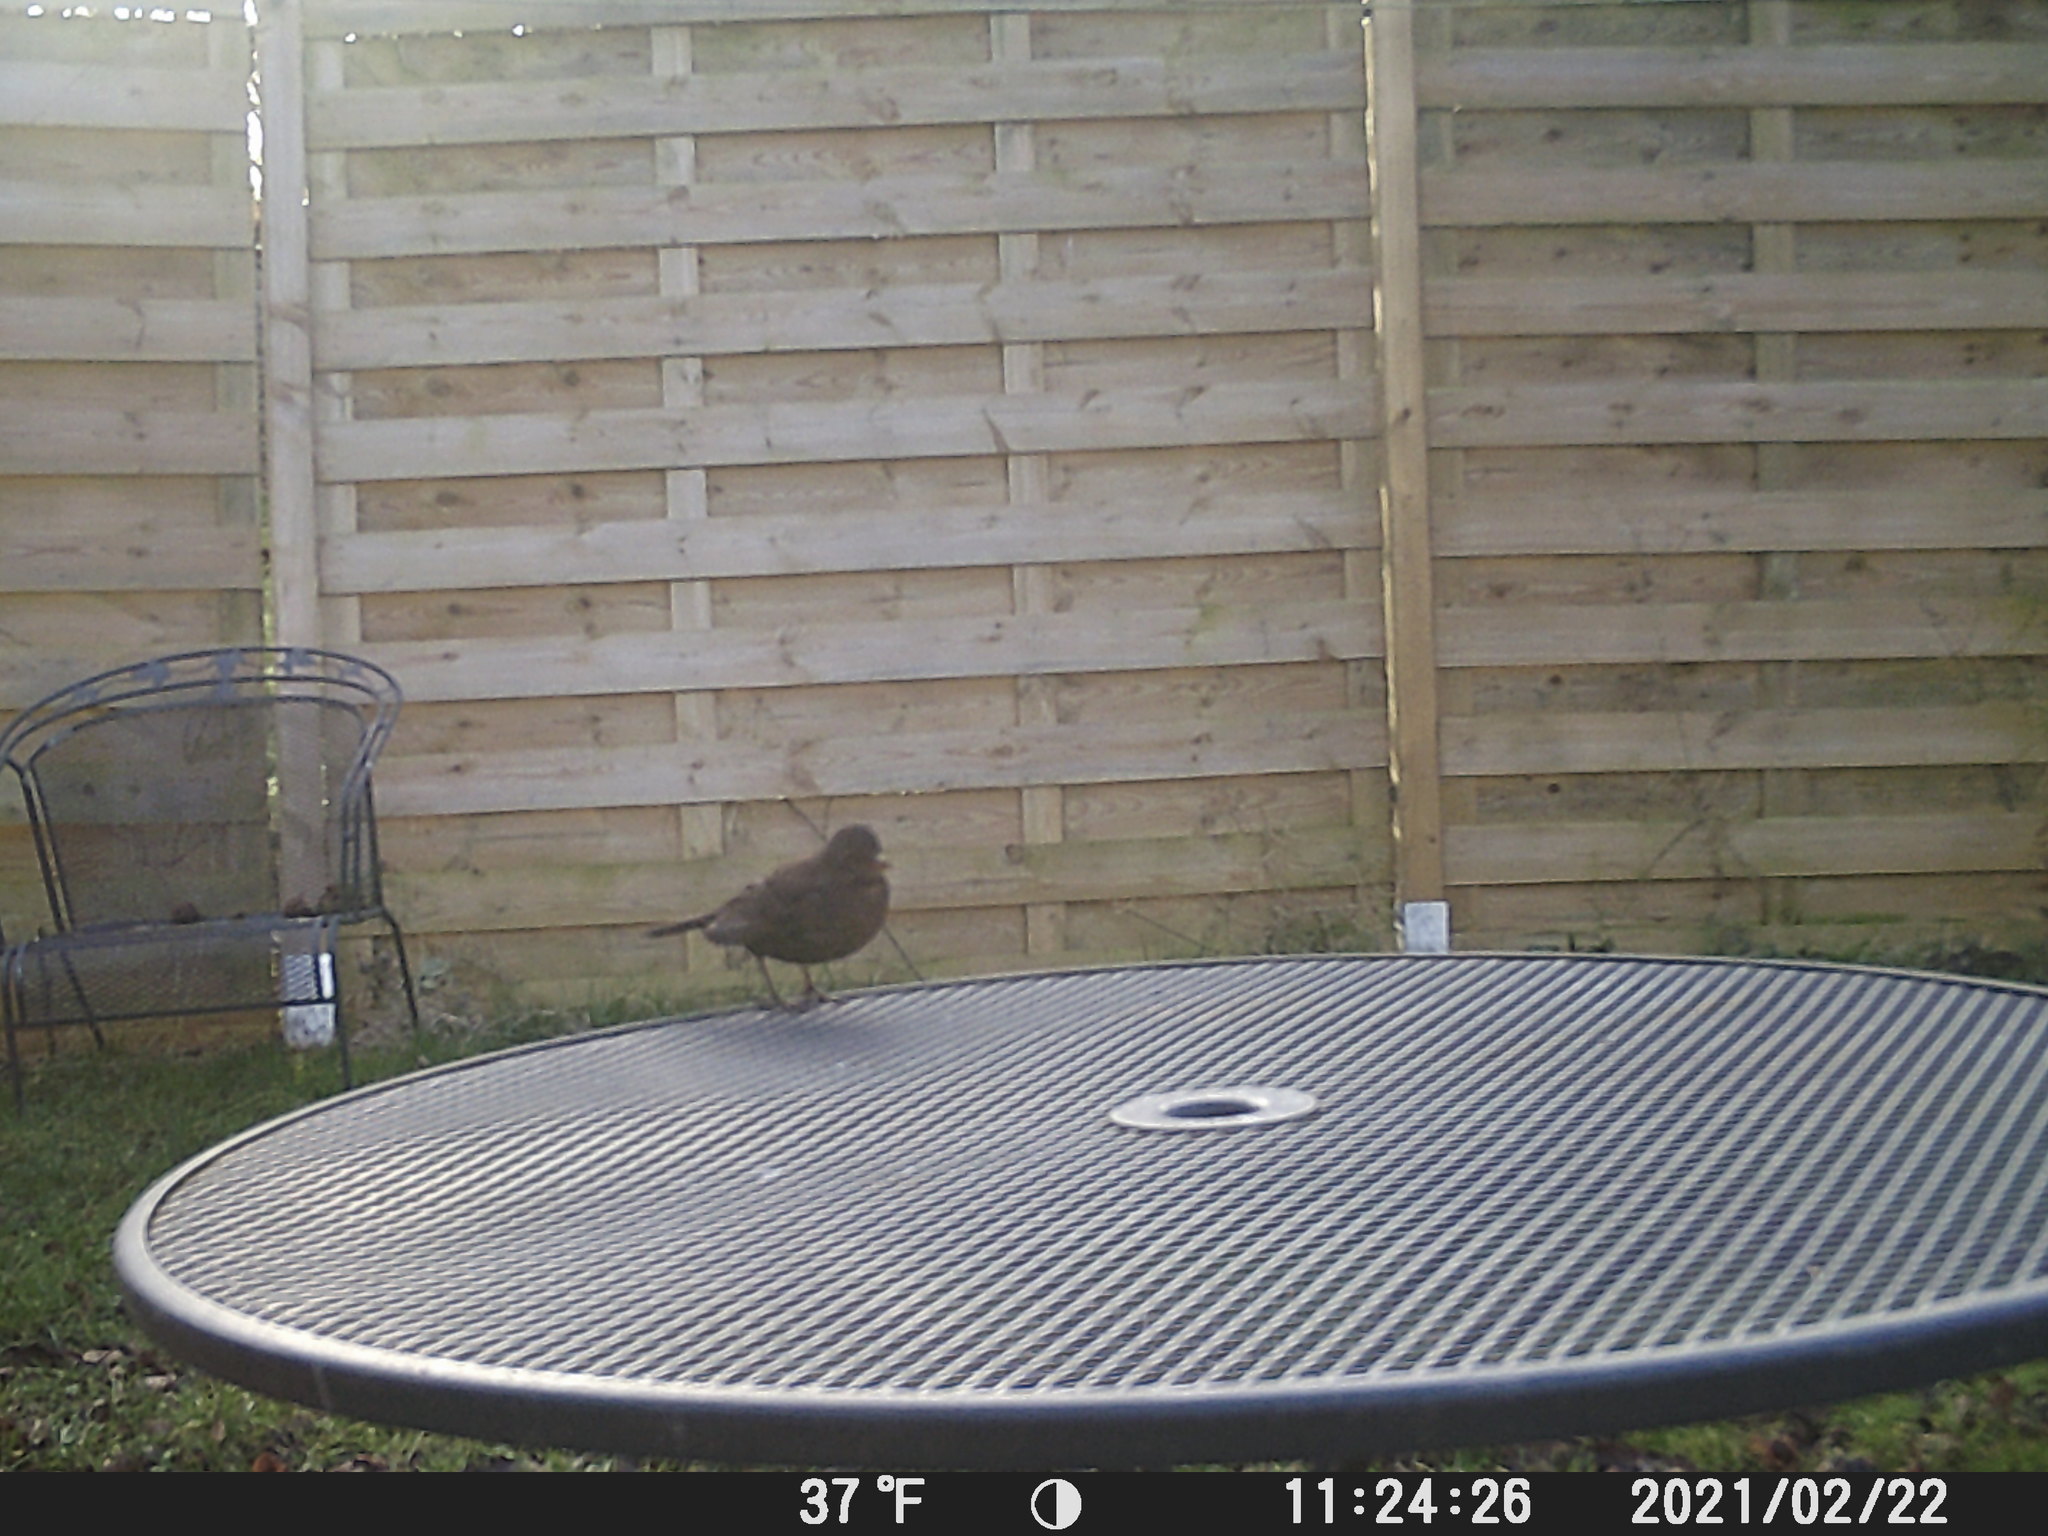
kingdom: Animalia
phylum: Chordata
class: Aves
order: Passeriformes
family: Turdidae
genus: Turdus
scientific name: Turdus merula
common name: Common blackbird
